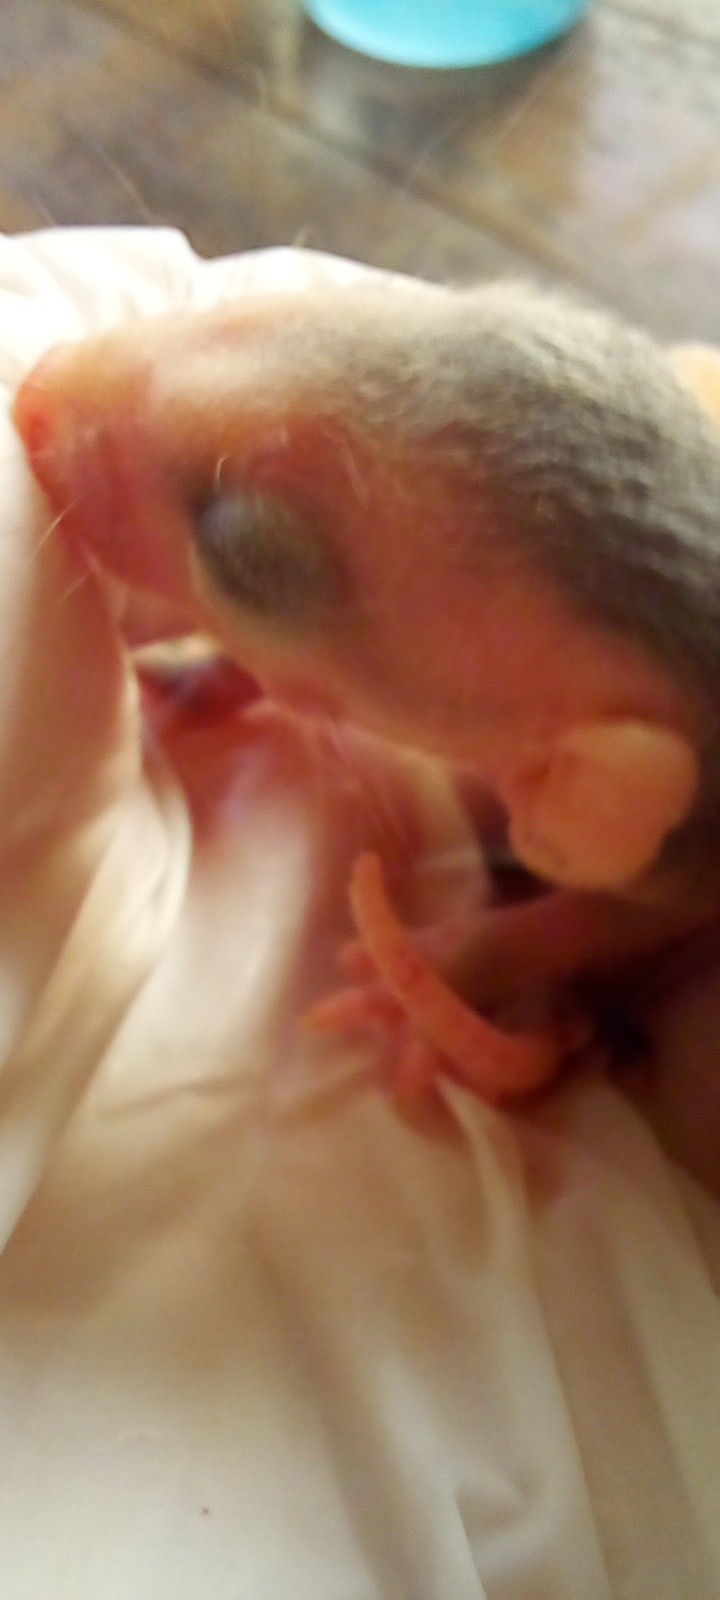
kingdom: Animalia
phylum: Chordata
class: Mammalia
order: Didelphimorphia
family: Didelphidae
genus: Didelphis
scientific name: Didelphis albiventris
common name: White-eared opossum
